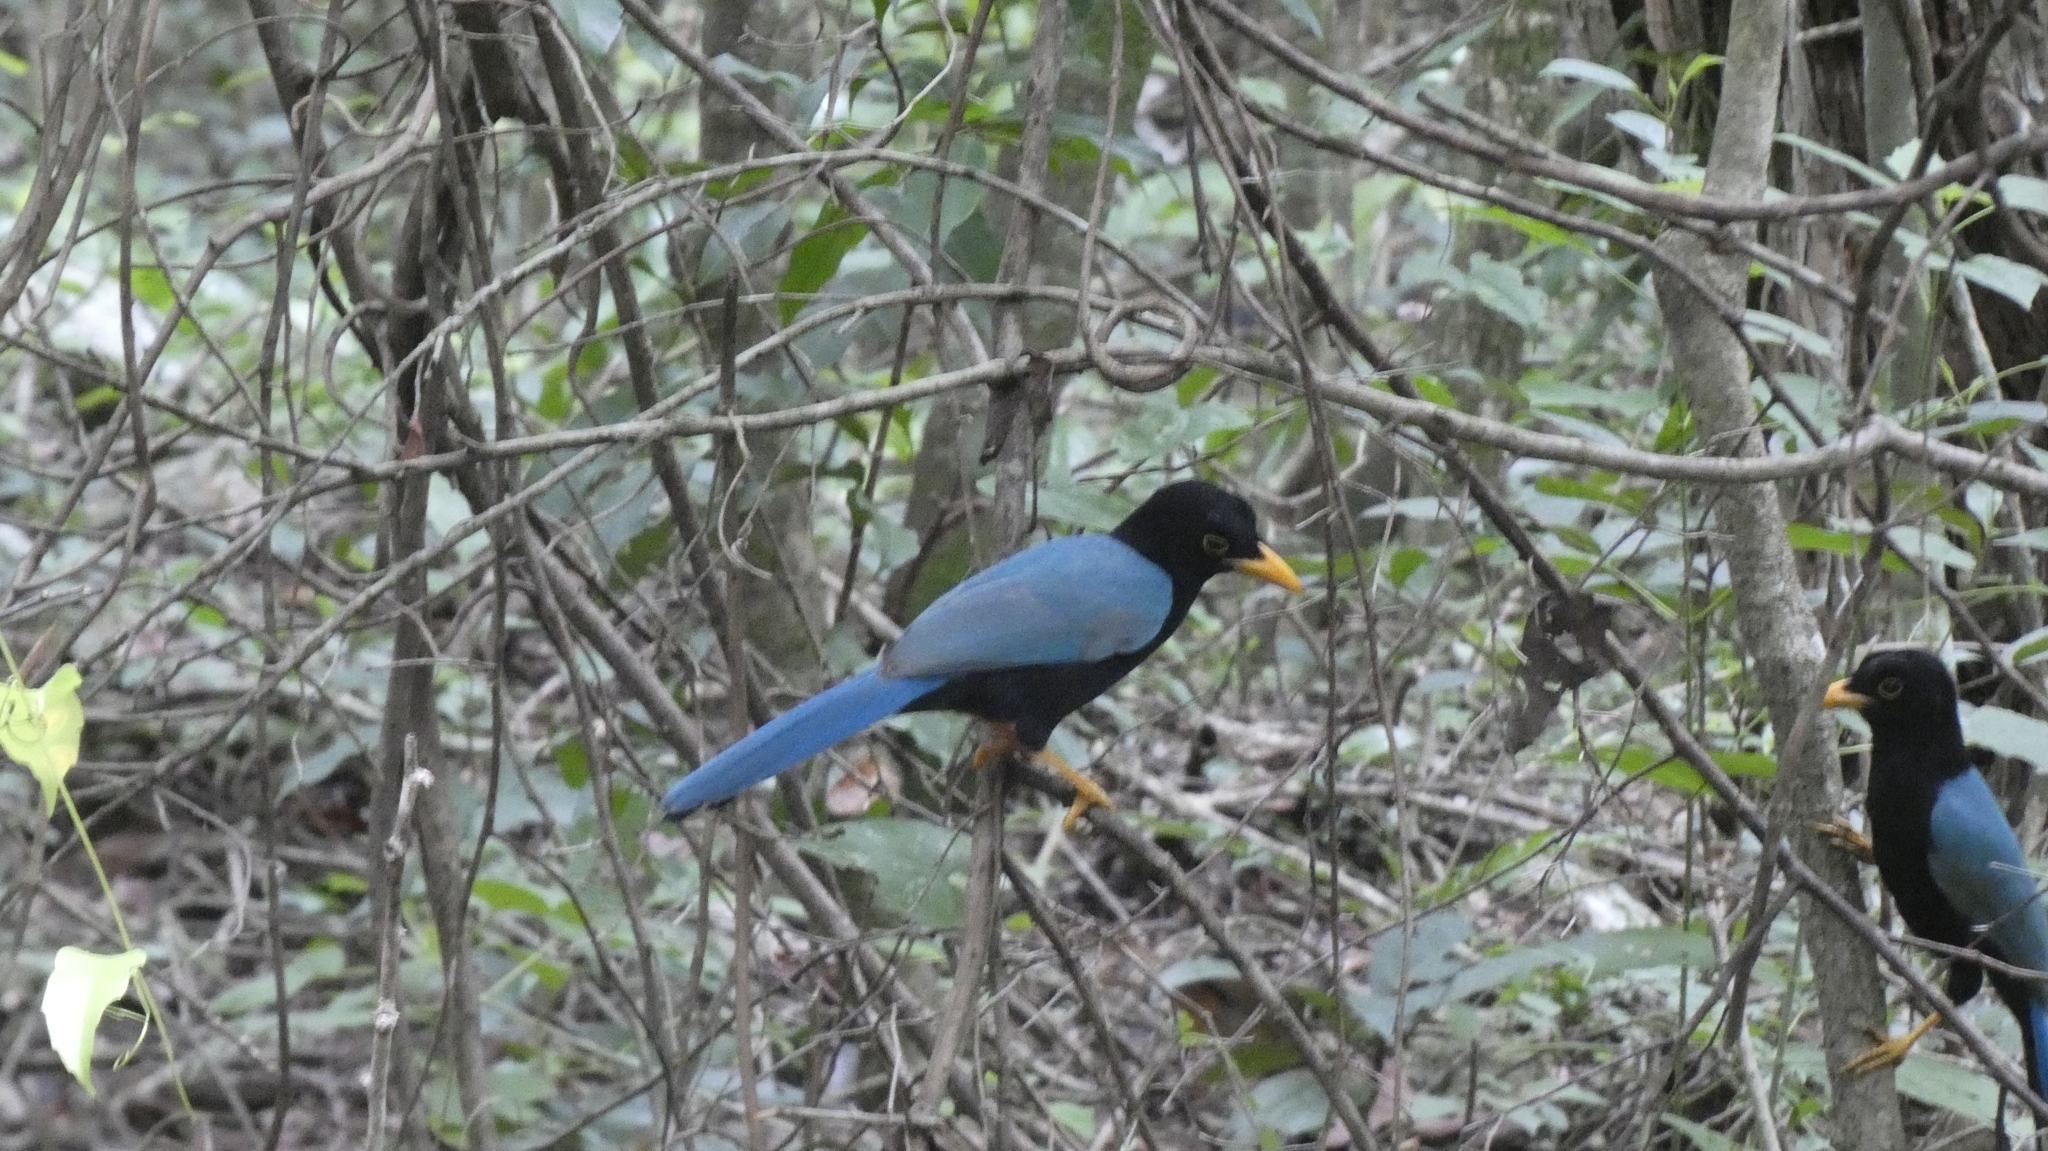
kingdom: Animalia
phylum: Chordata
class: Aves
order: Passeriformes
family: Corvidae
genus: Cyanocorax
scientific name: Cyanocorax yucatanicus
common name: Yucatan jay
